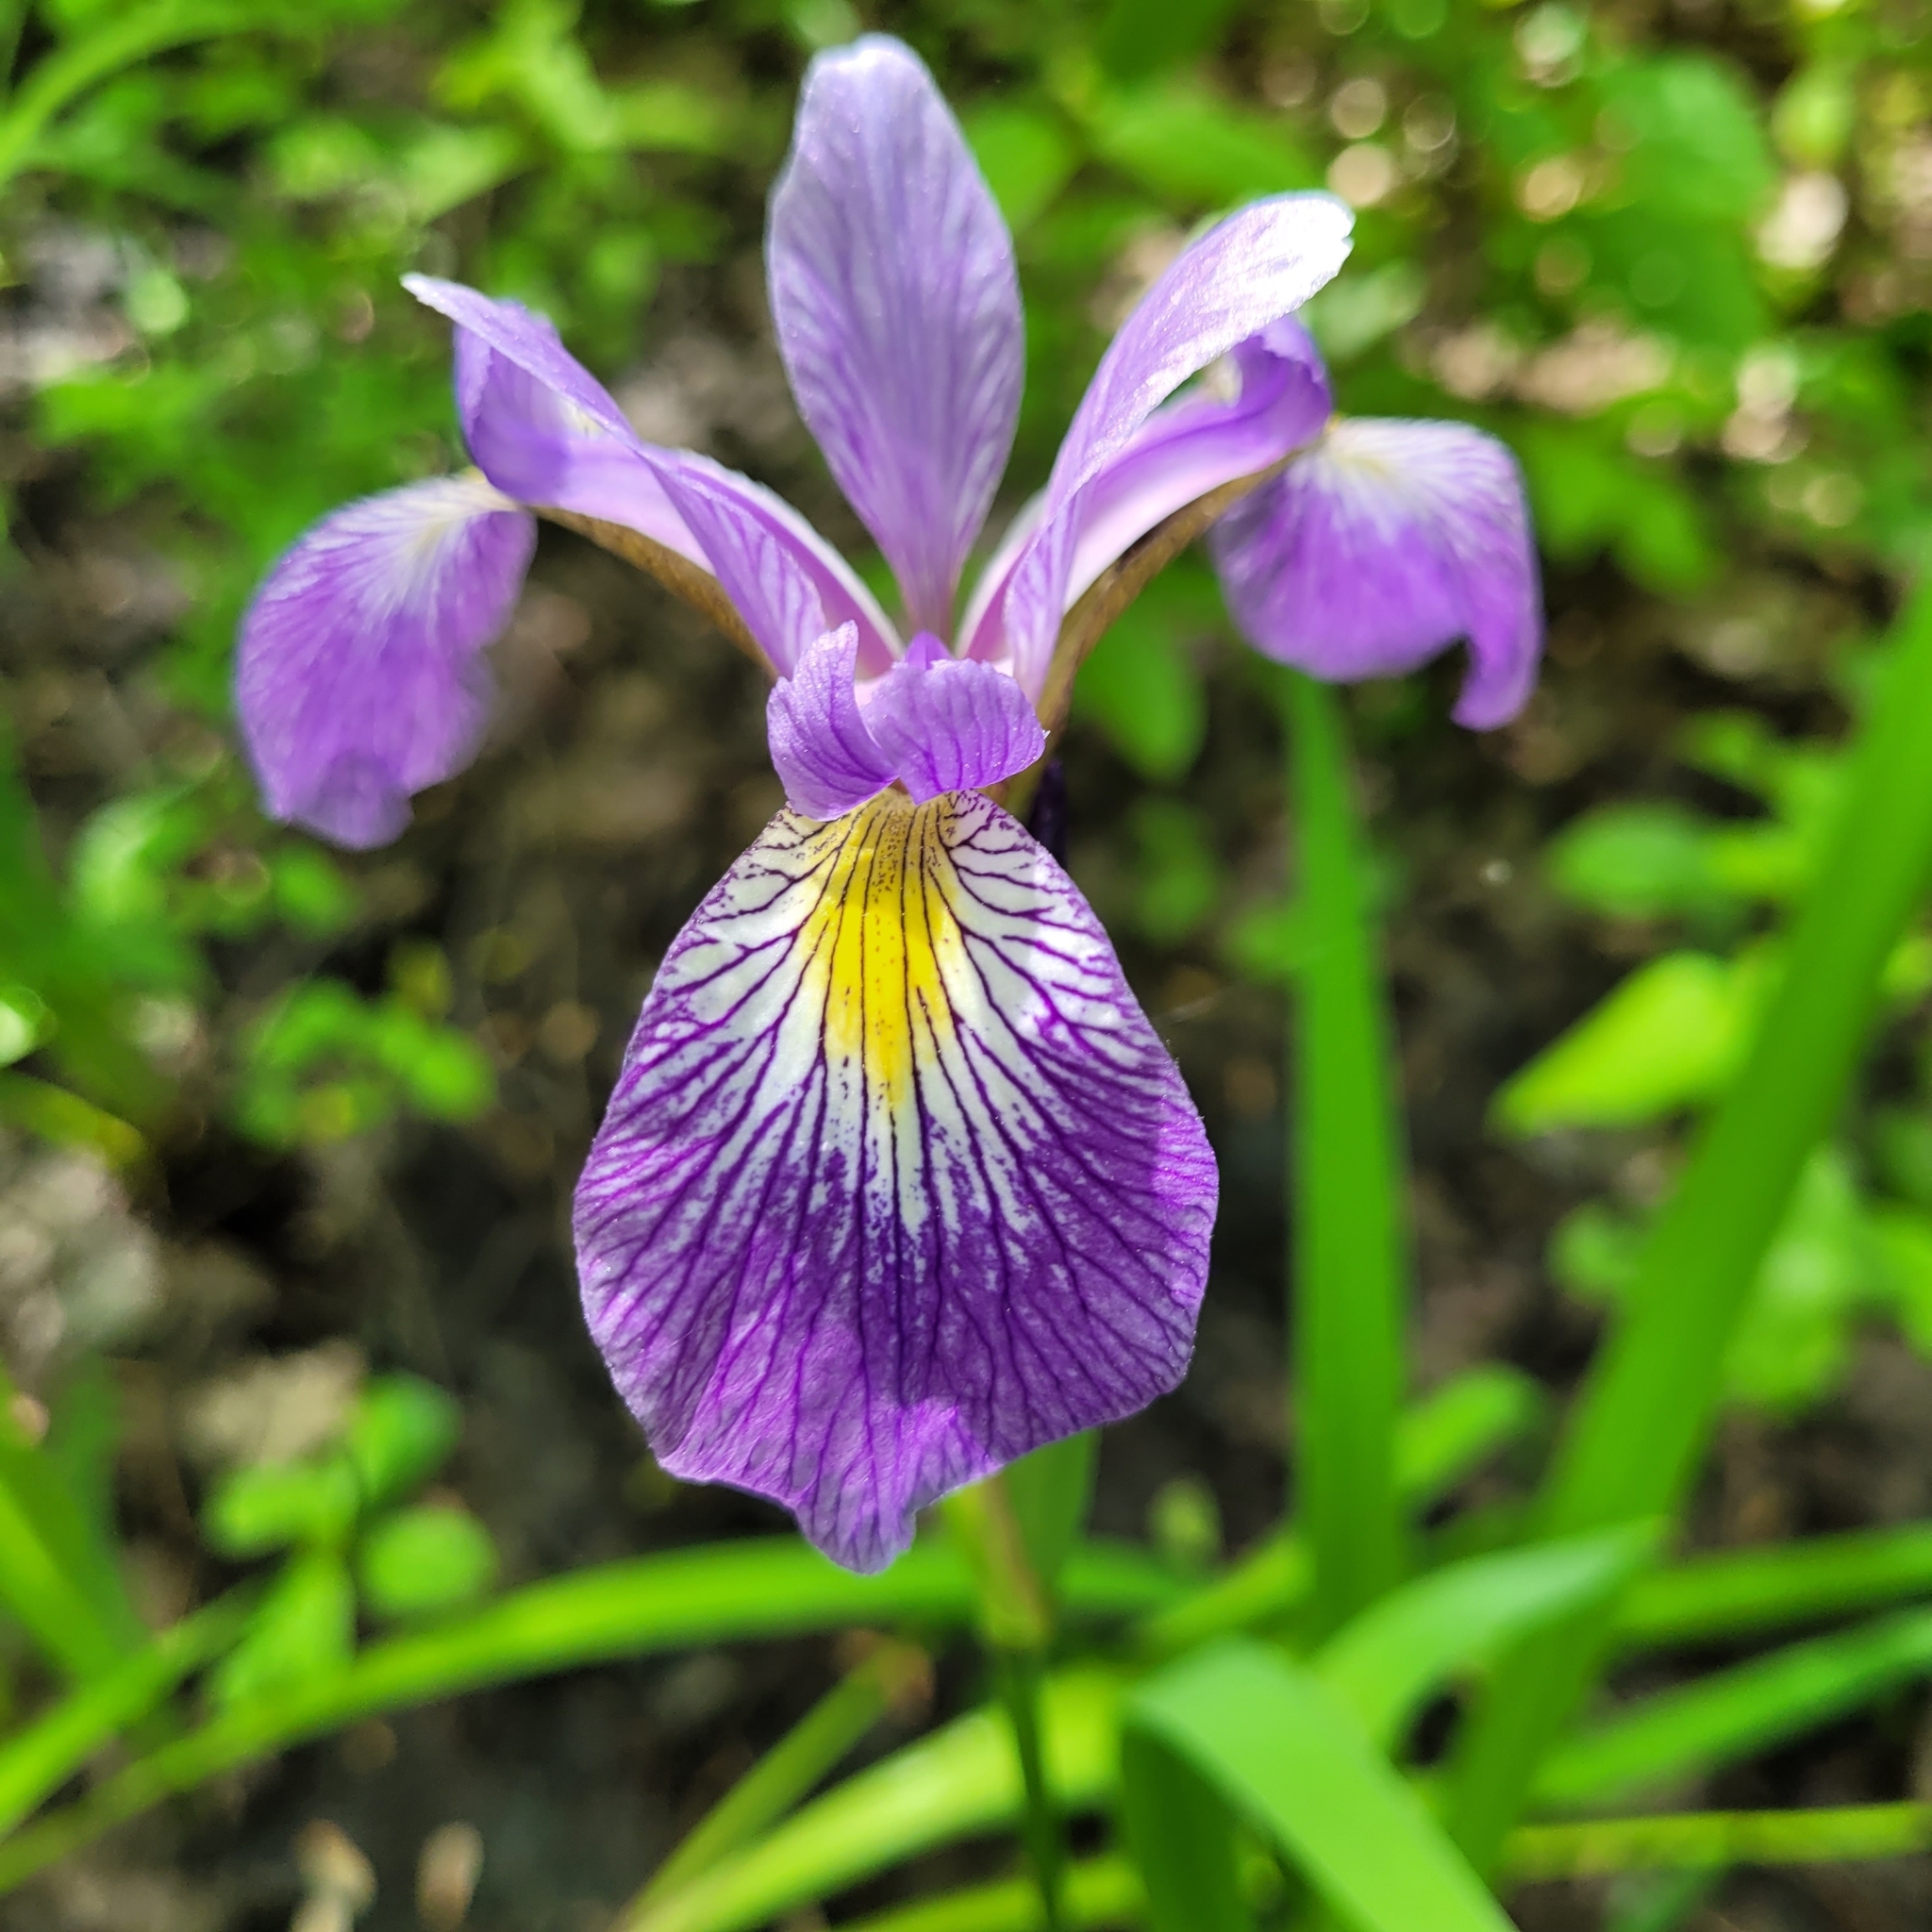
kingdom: Plantae
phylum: Tracheophyta
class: Liliopsida
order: Asparagales
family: Iridaceae
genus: Iris
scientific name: Iris versicolor
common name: Purple iris
